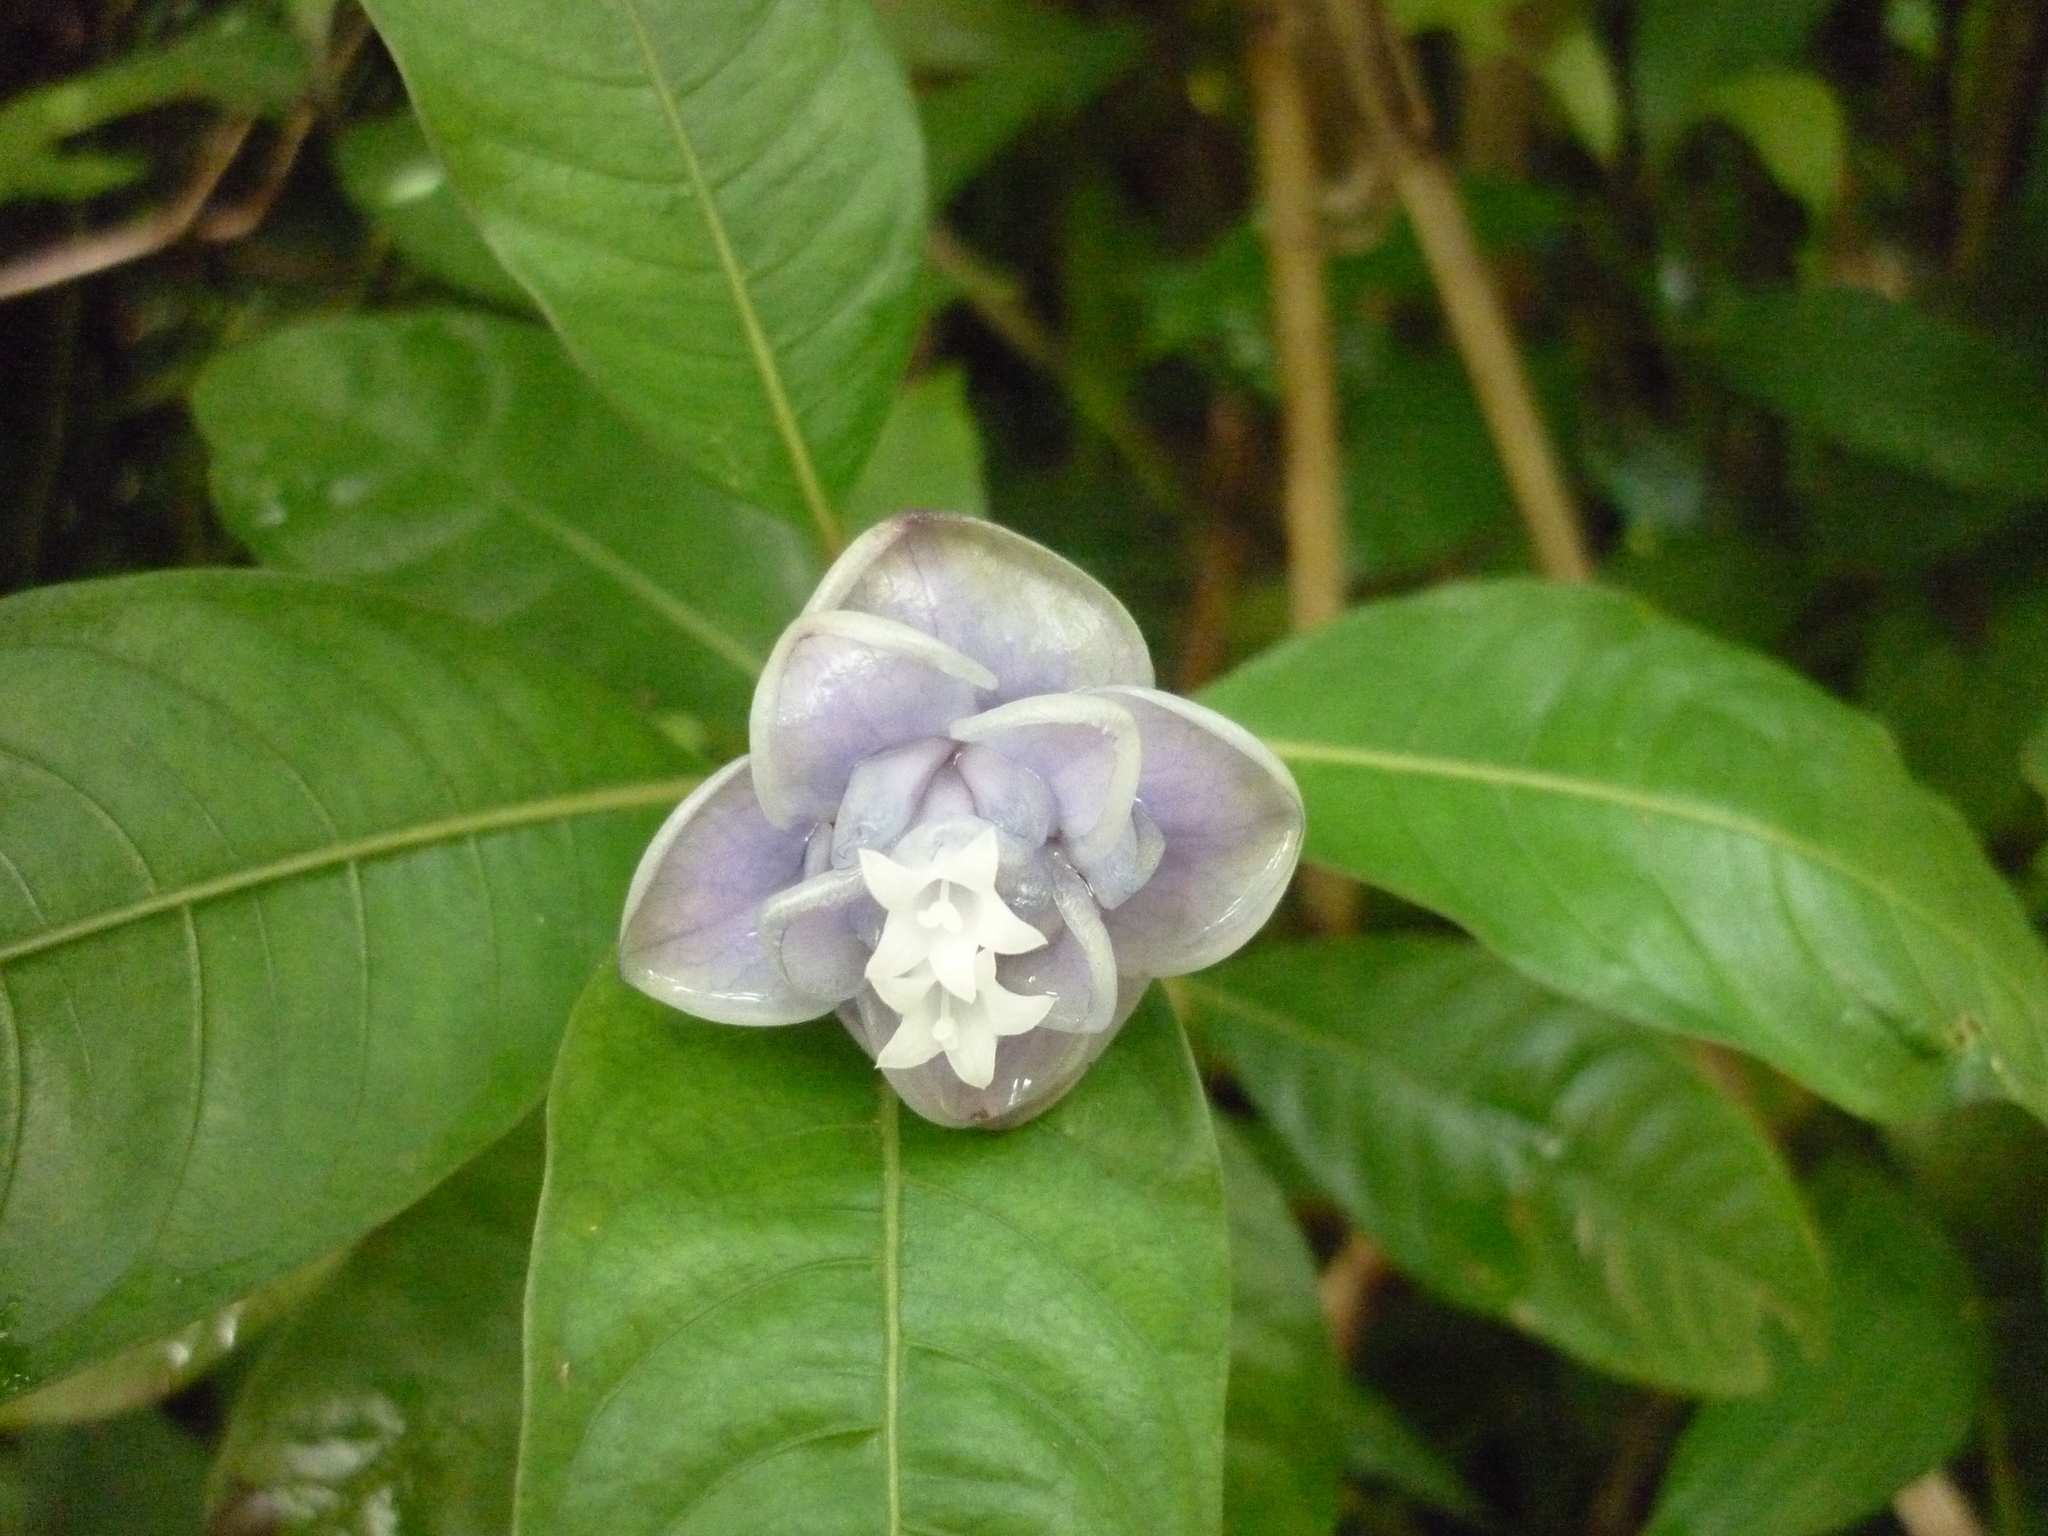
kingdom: Plantae
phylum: Tracheophyta
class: Magnoliopsida
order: Gentianales
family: Rubiaceae
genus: Psychotria
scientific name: Psychotria urbaniana
